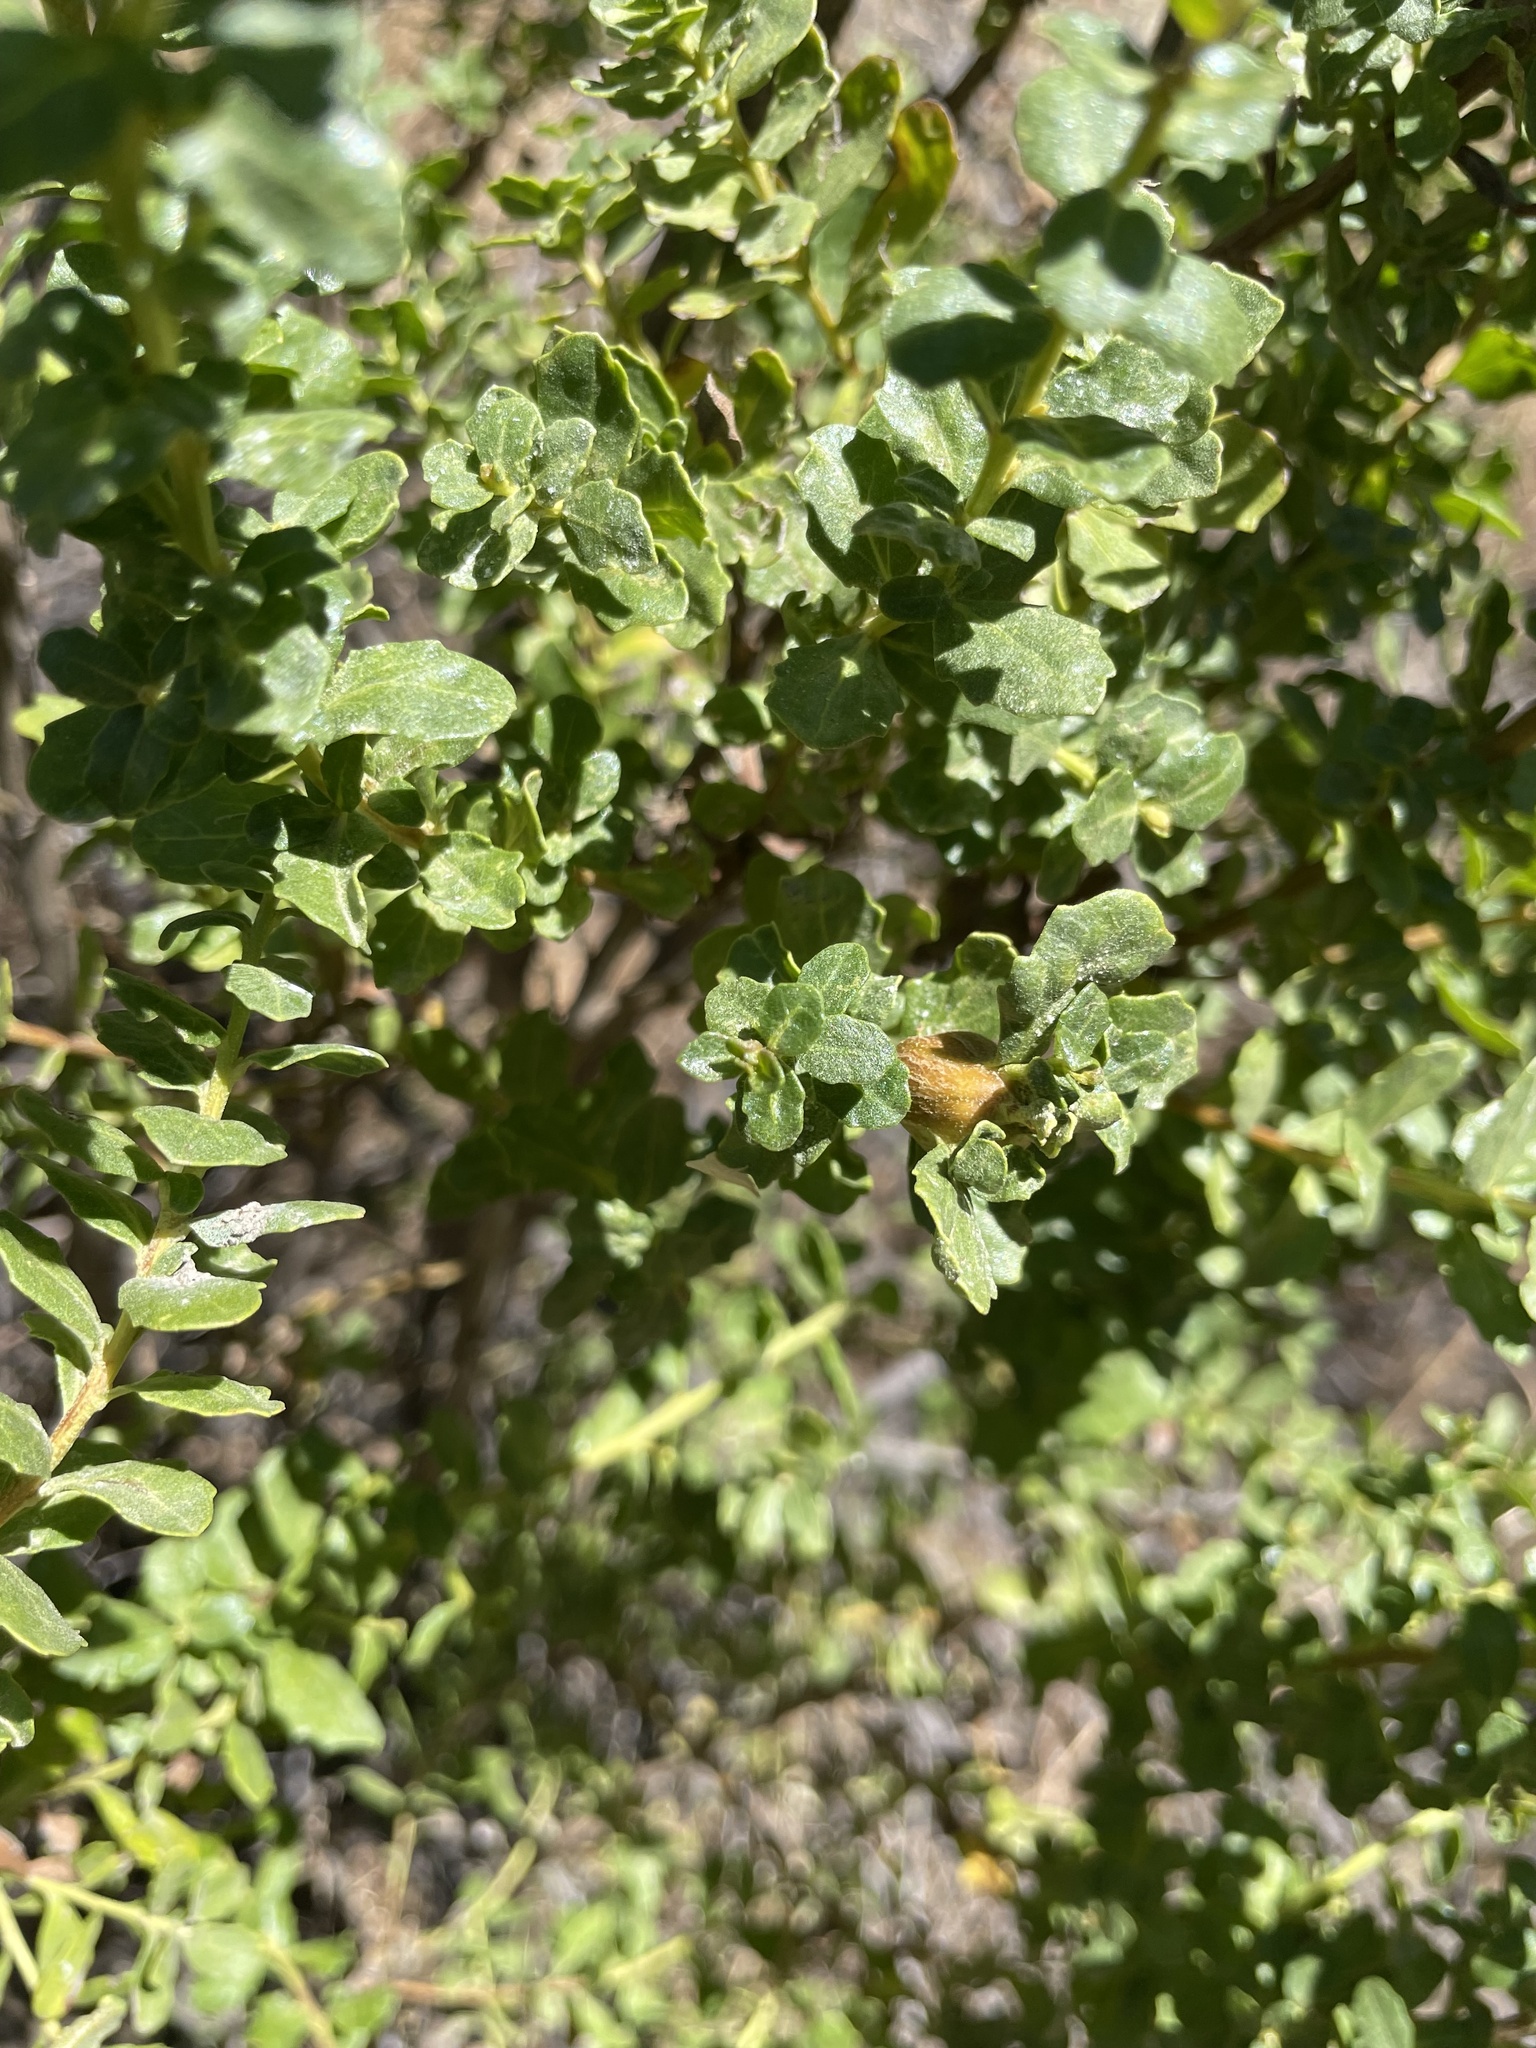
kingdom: Animalia
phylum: Arthropoda
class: Insecta
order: Lepidoptera
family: Gelechiidae
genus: Gnorimoschema
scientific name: Gnorimoschema baccharisella
